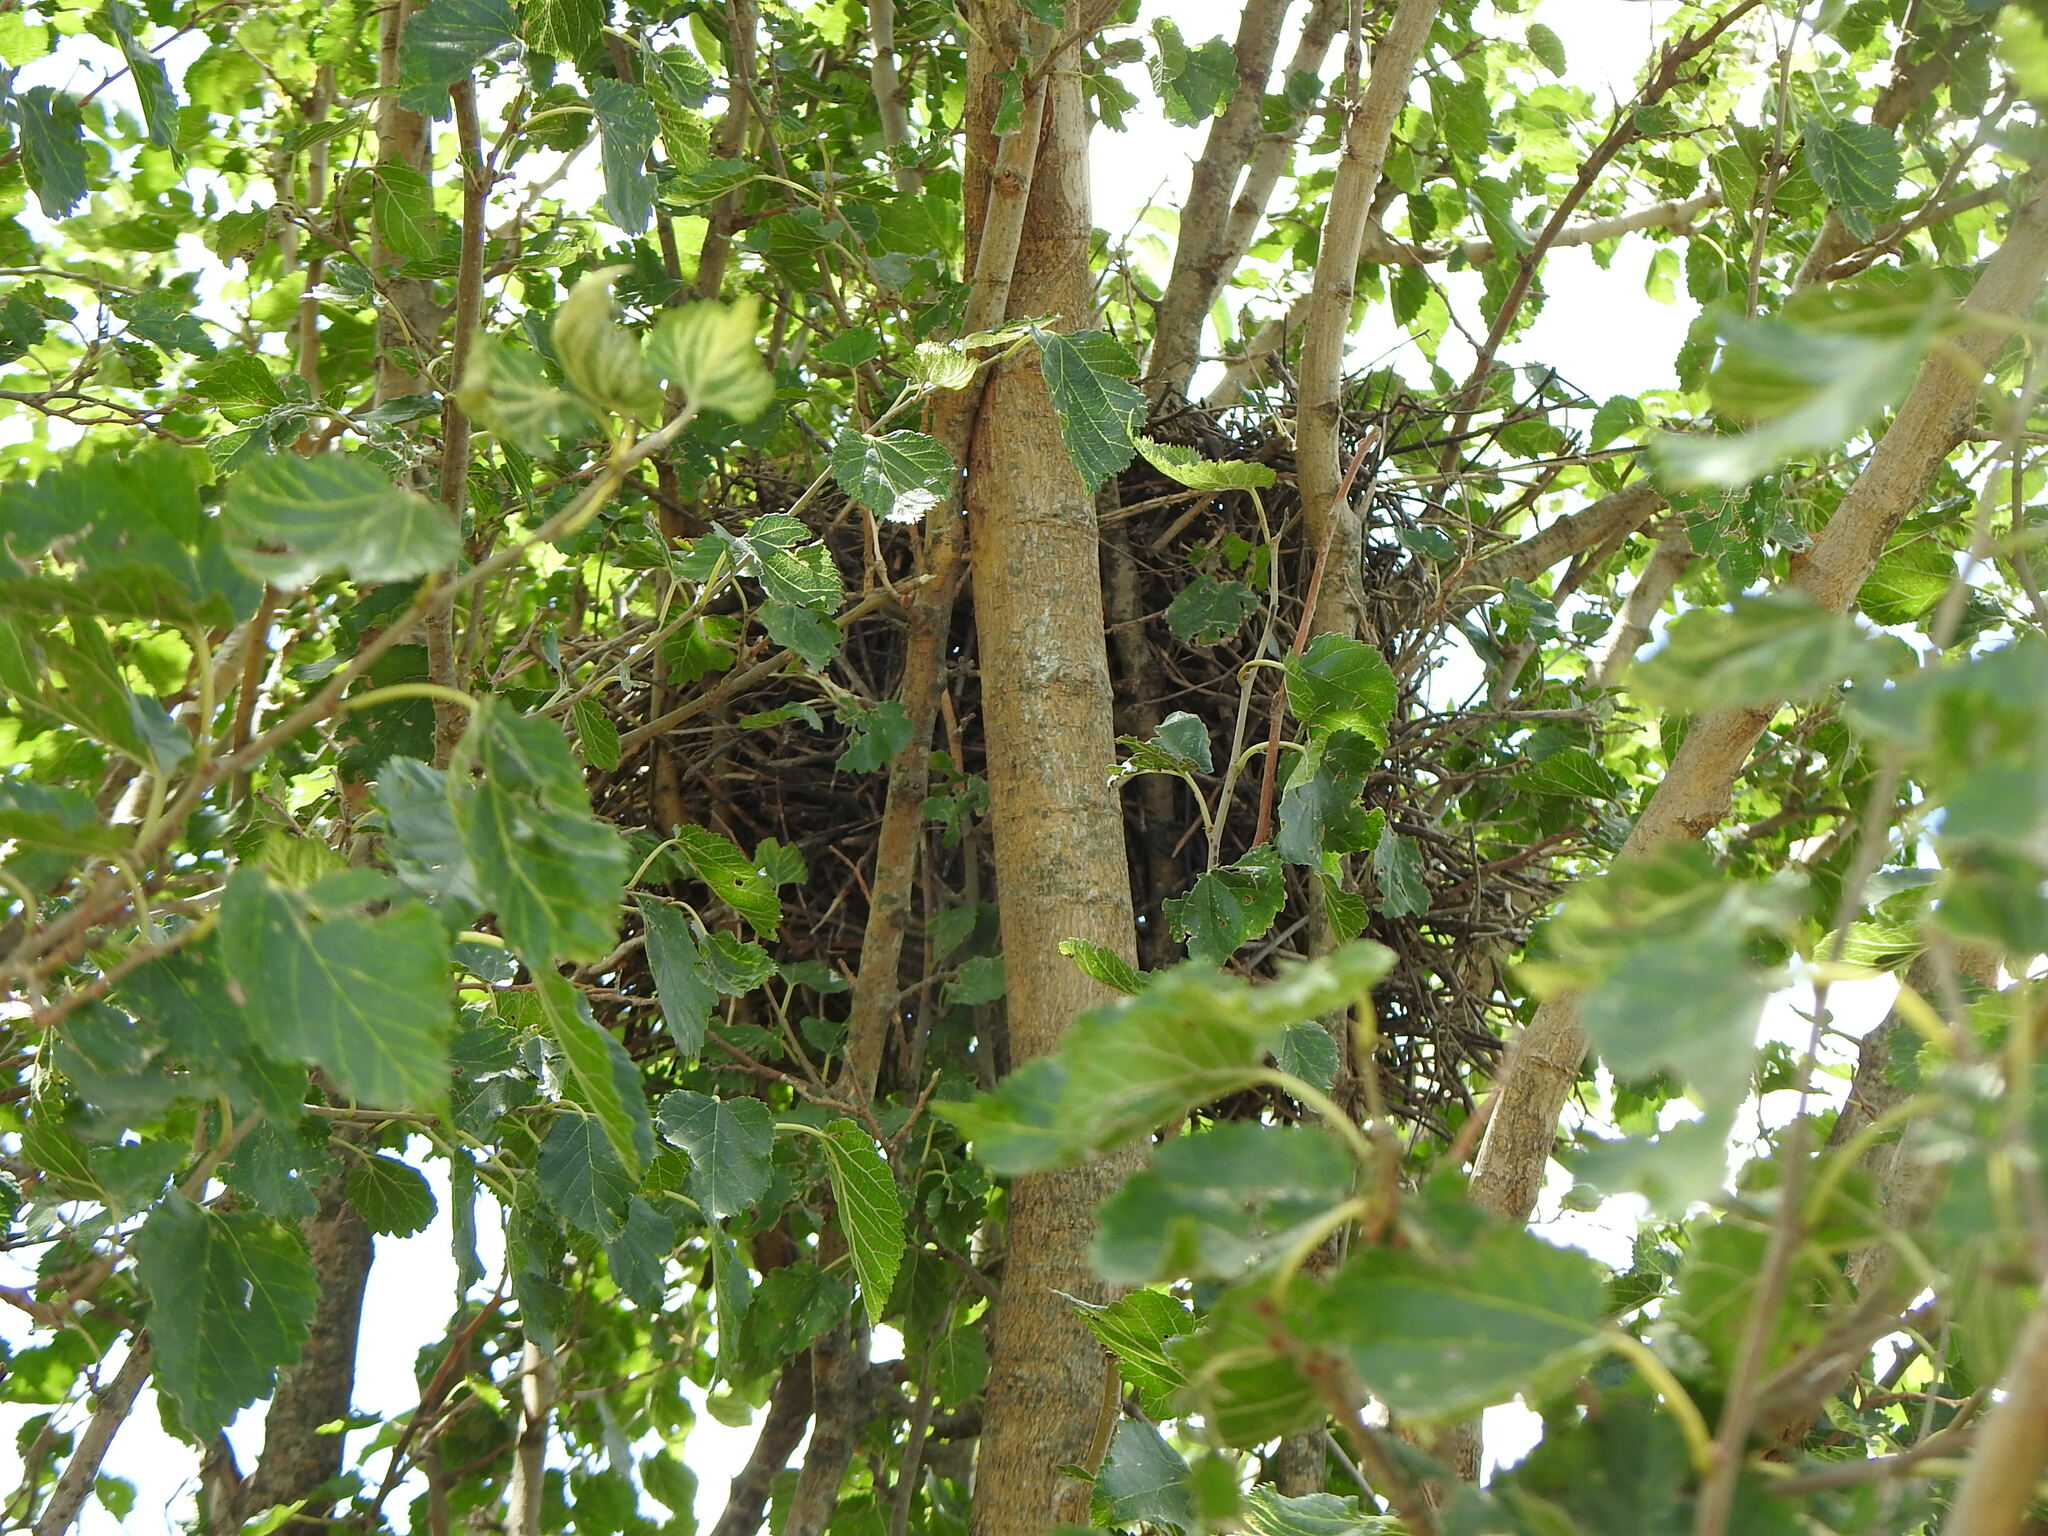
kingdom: Animalia
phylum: Chordata
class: Aves
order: Passeriformes
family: Furnariidae
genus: Anumbius
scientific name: Anumbius annumbi
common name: Firewood-gatherer
